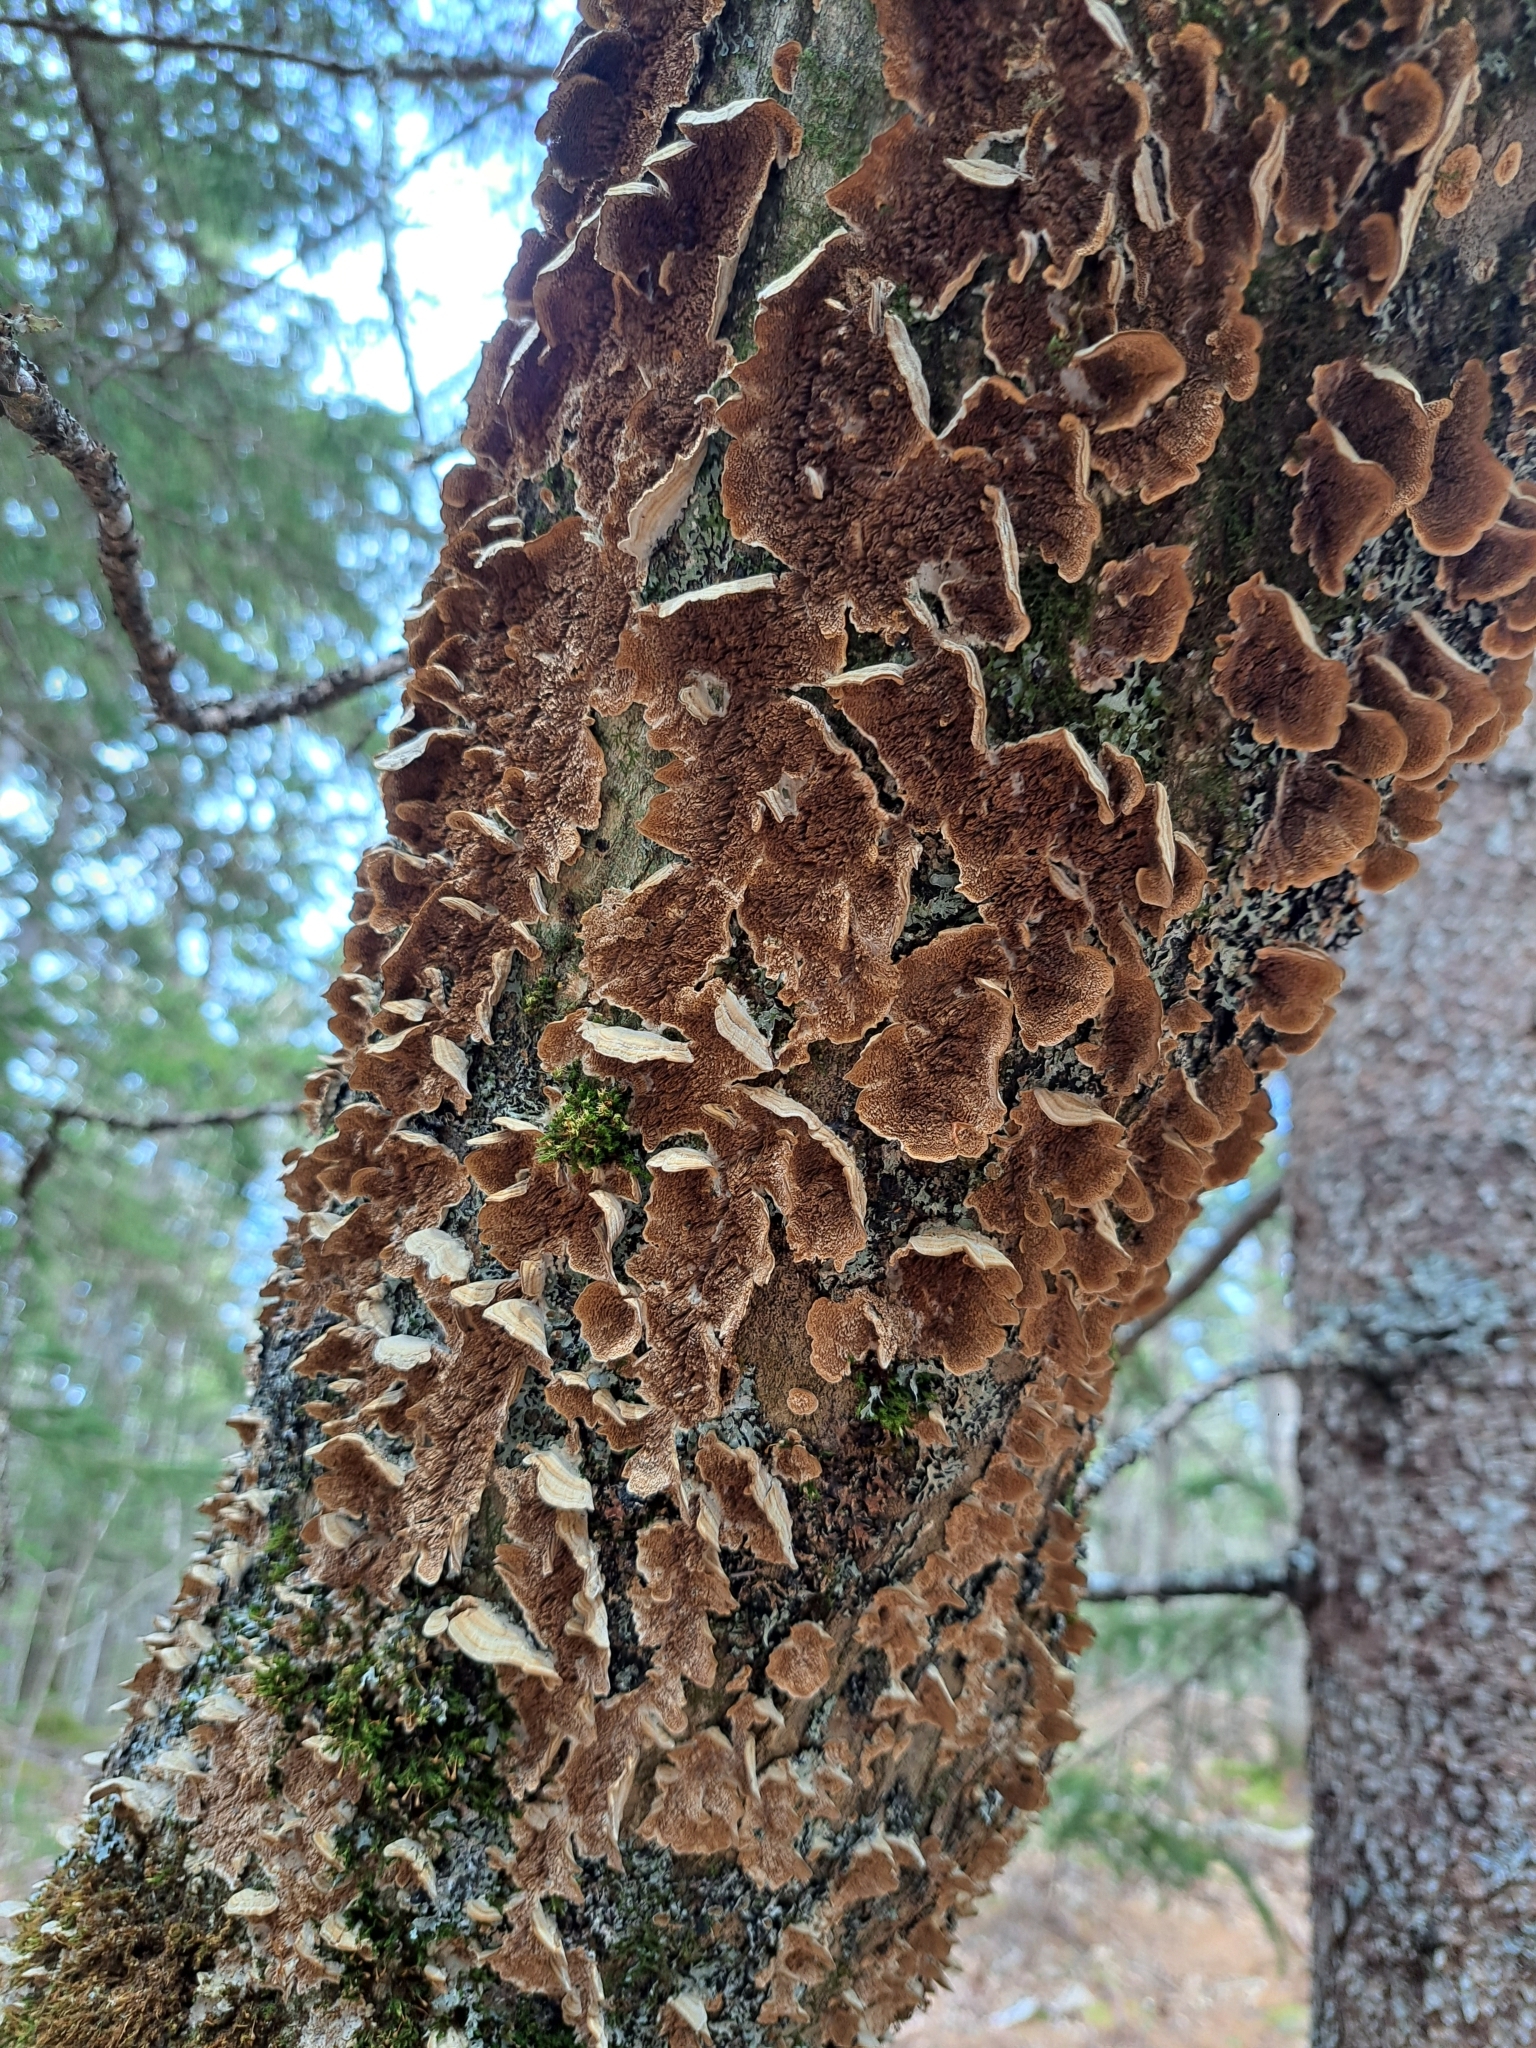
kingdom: Fungi
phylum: Basidiomycota
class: Agaricomycetes
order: Hymenochaetales
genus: Trichaptum
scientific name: Trichaptum biforme
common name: Violet-toothed polypore
